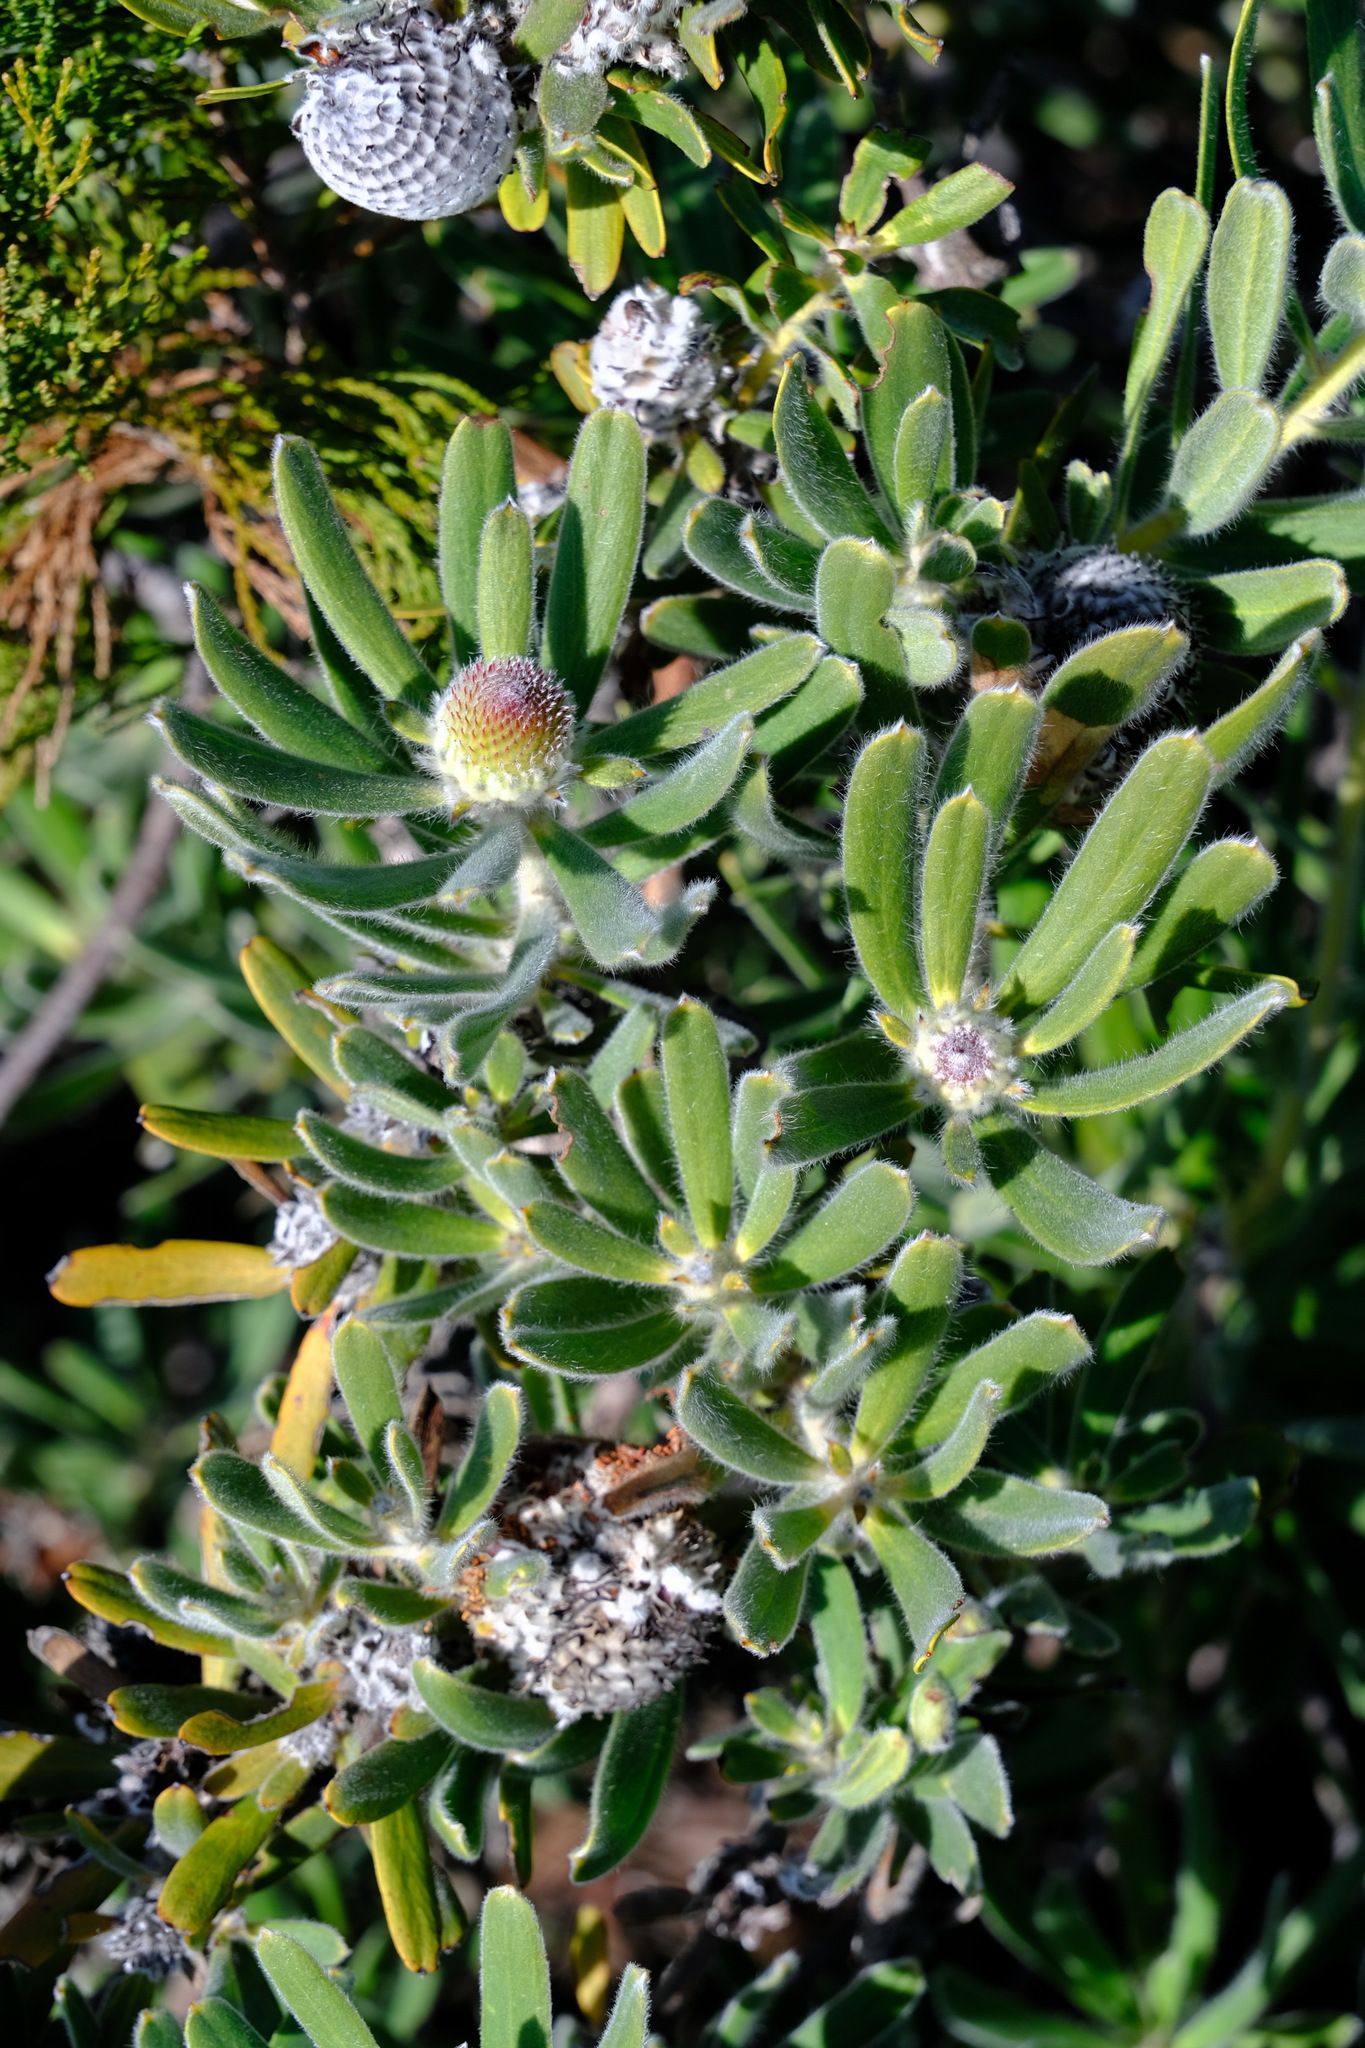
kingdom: Plantae
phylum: Tracheophyta
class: Magnoliopsida
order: Proteales
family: Proteaceae
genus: Isopogon
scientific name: Isopogon sphaerocephalus
